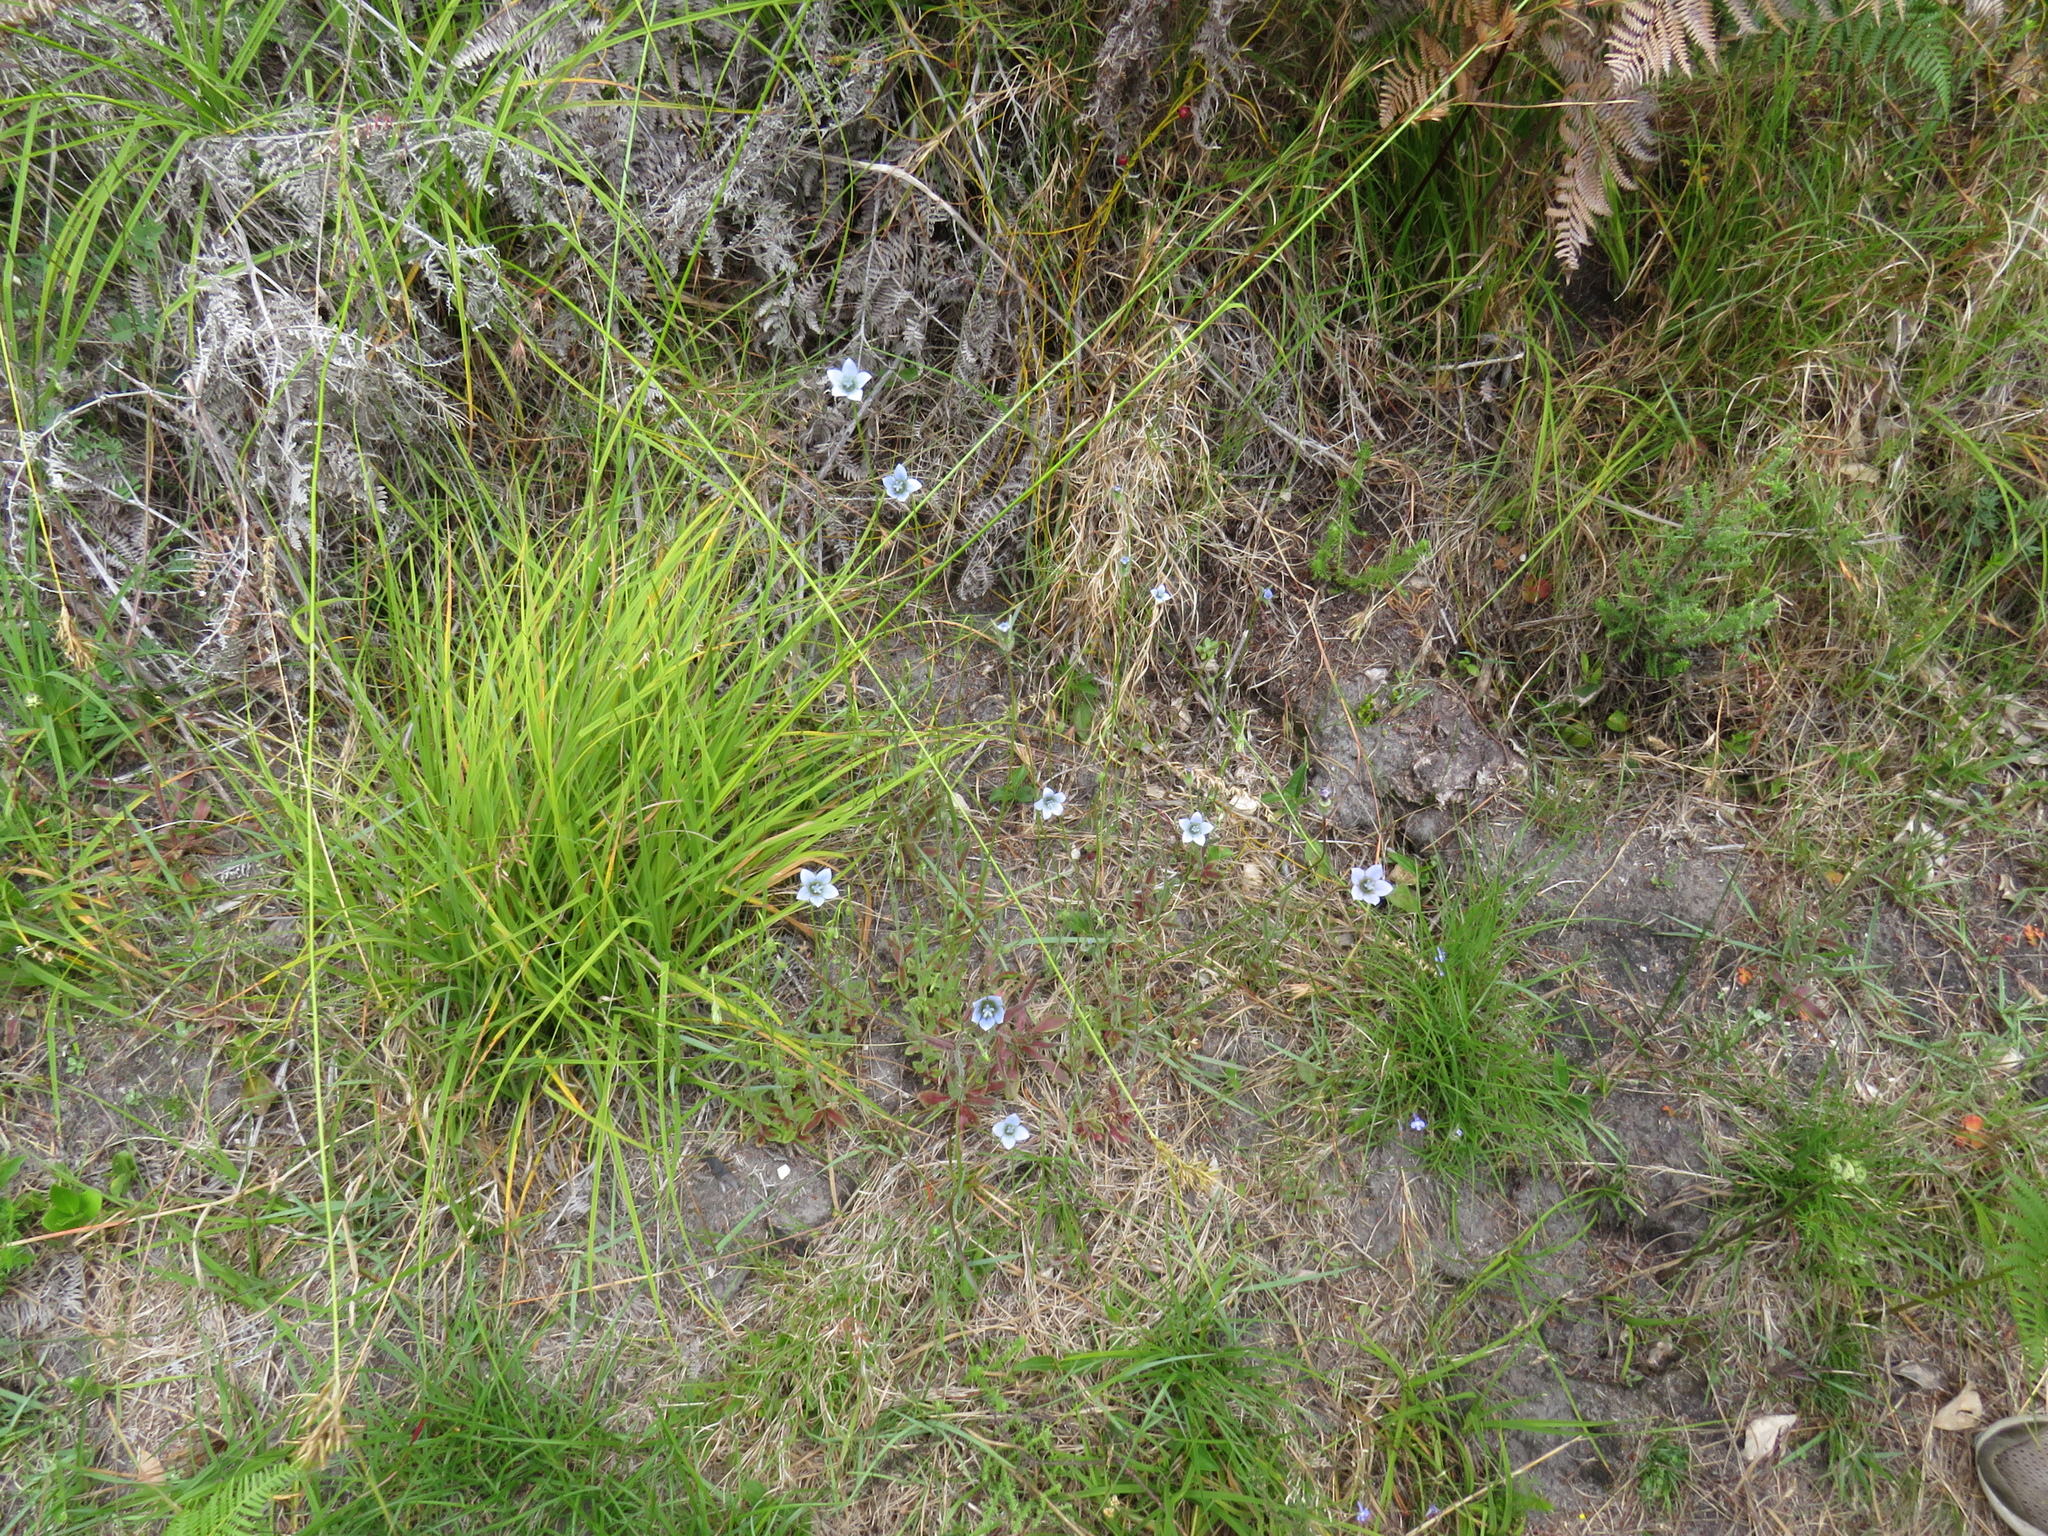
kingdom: Plantae
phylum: Tracheophyta
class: Magnoliopsida
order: Asterales
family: Campanulaceae
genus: Wahlenbergia
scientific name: Wahlenbergia capensis
